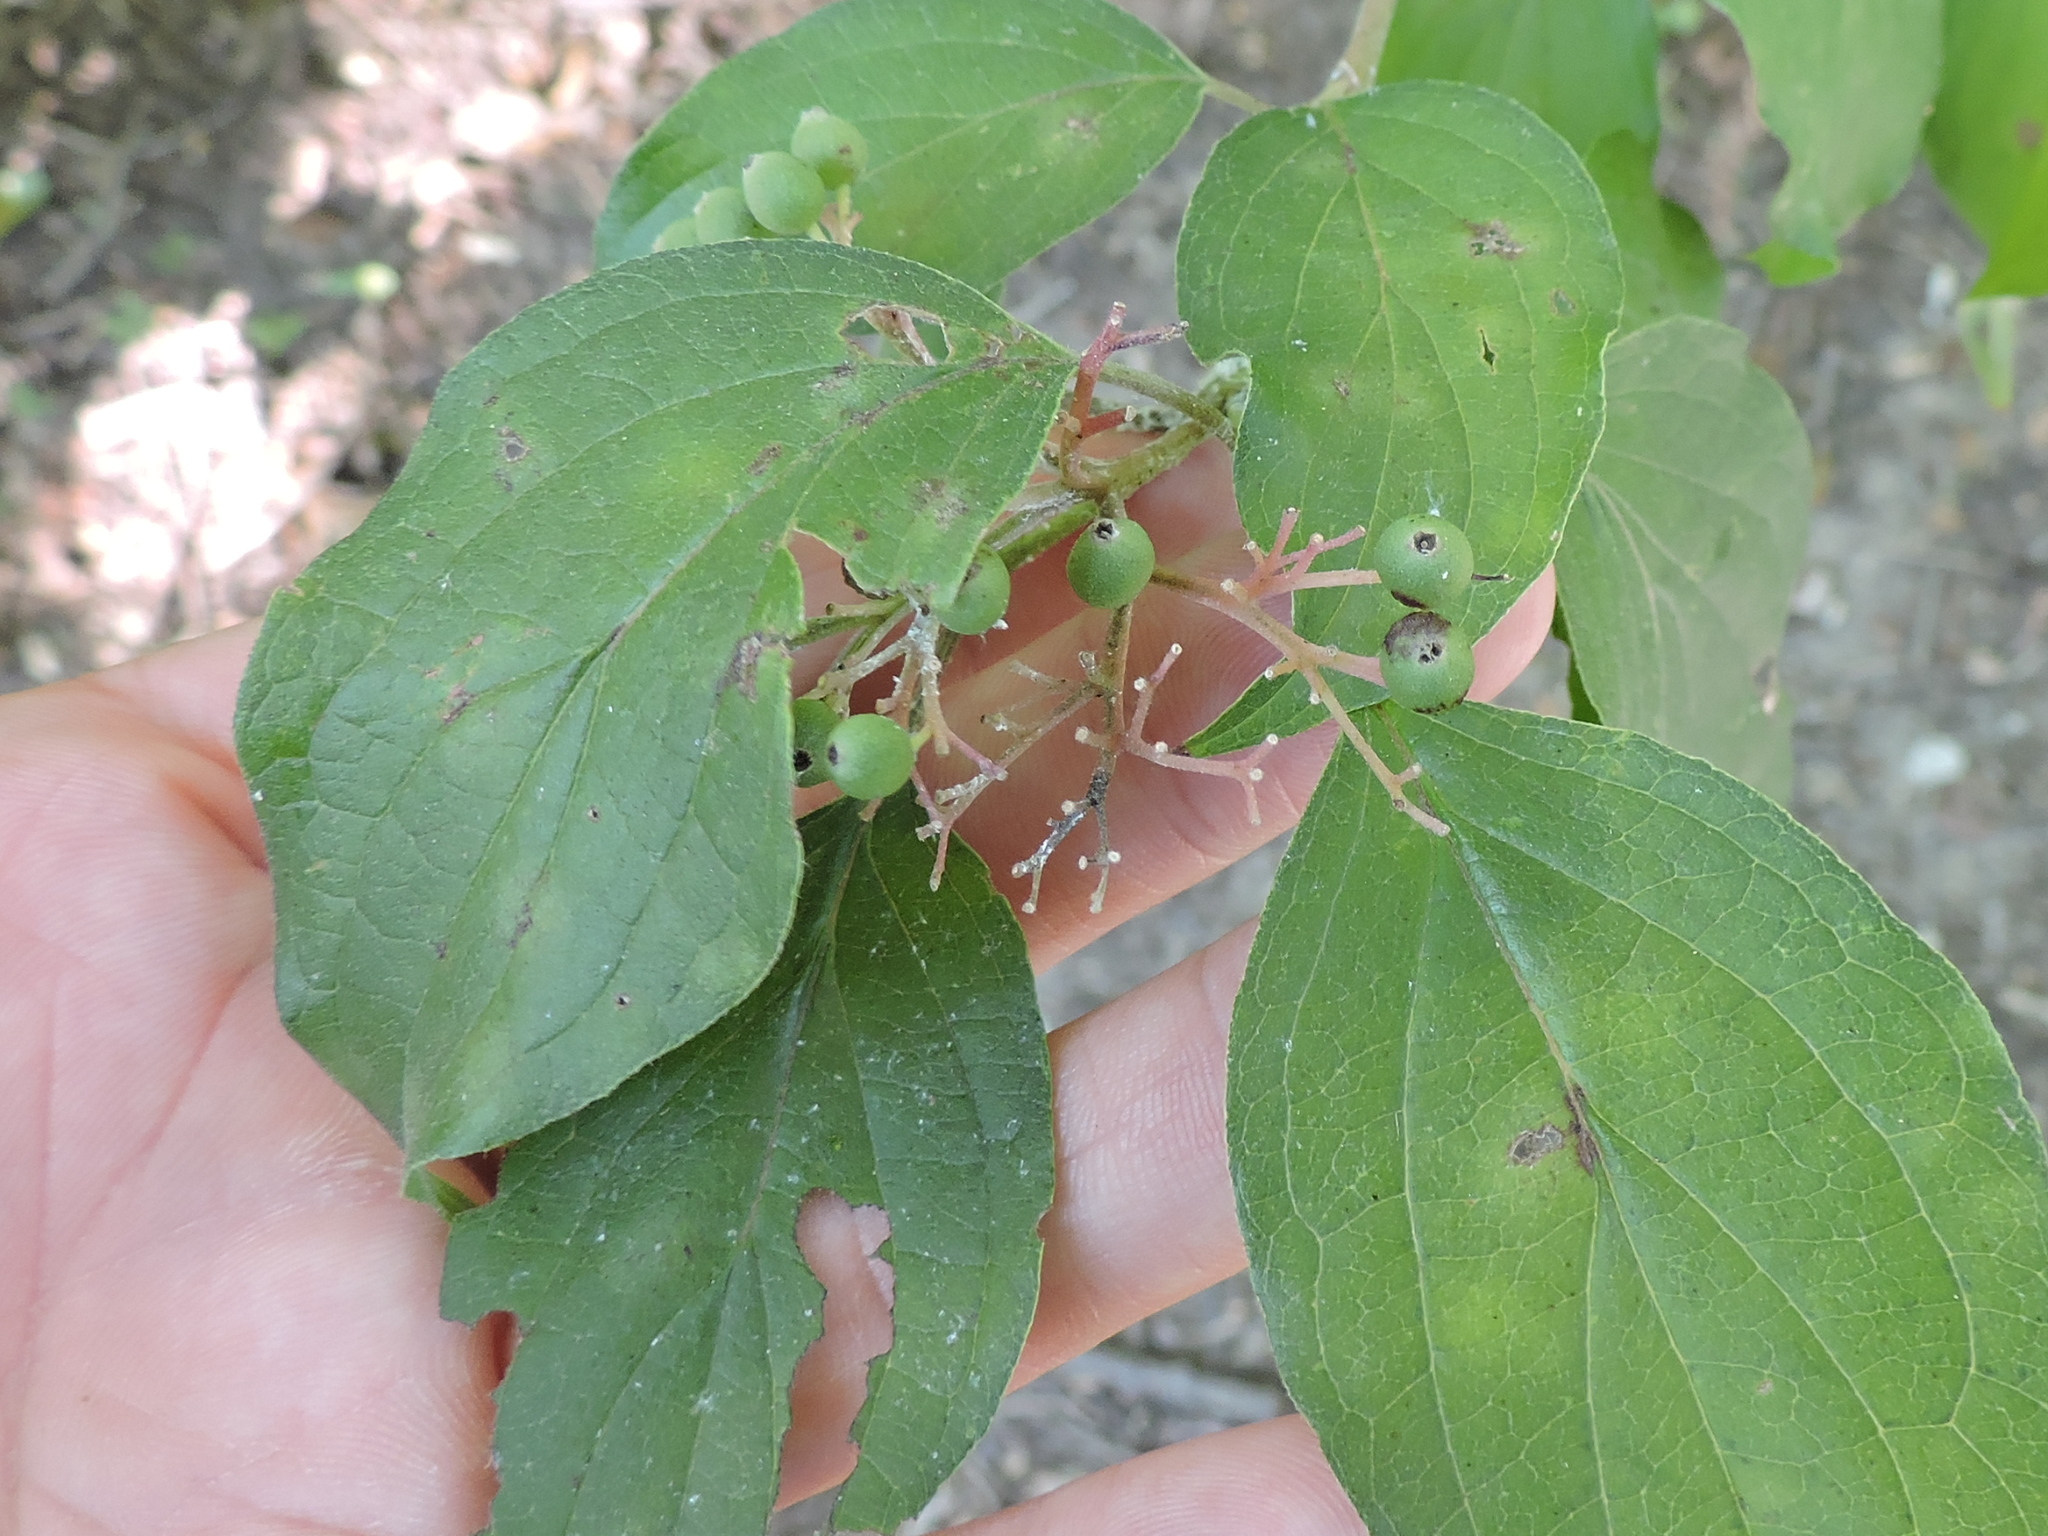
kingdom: Plantae
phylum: Tracheophyta
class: Magnoliopsida
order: Cornales
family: Cornaceae
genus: Cornus
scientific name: Cornus drummondii
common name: Rough-leaf dogwood
